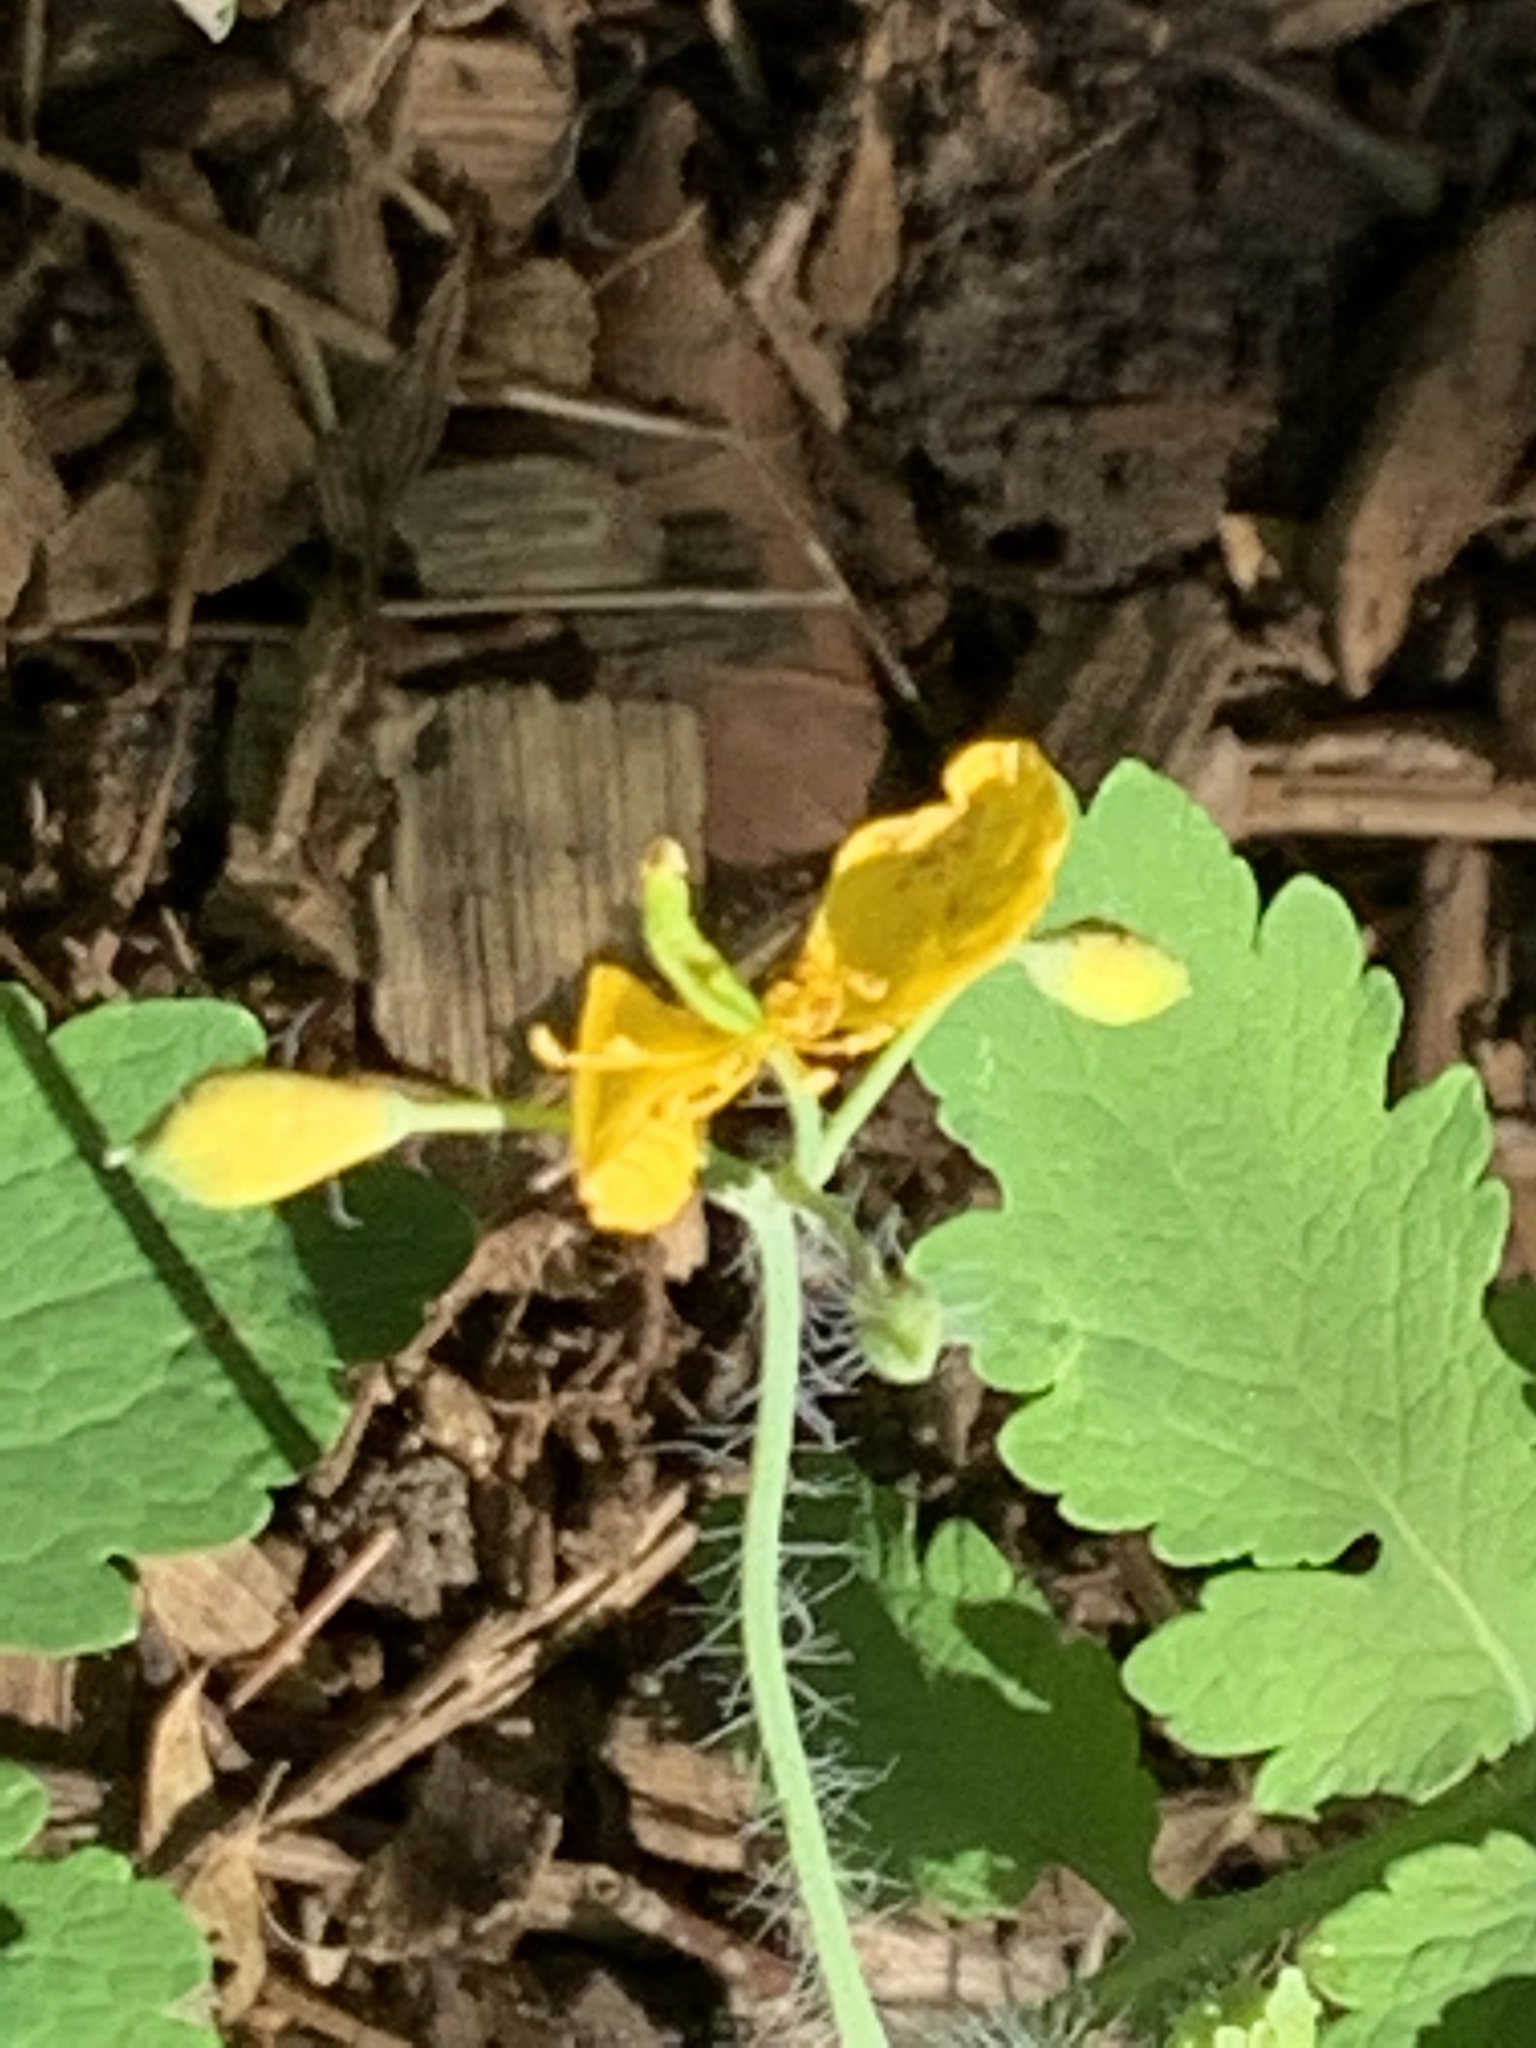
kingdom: Plantae
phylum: Tracheophyta
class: Magnoliopsida
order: Ranunculales
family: Papaveraceae
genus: Chelidonium
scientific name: Chelidonium majus
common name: Greater celandine
